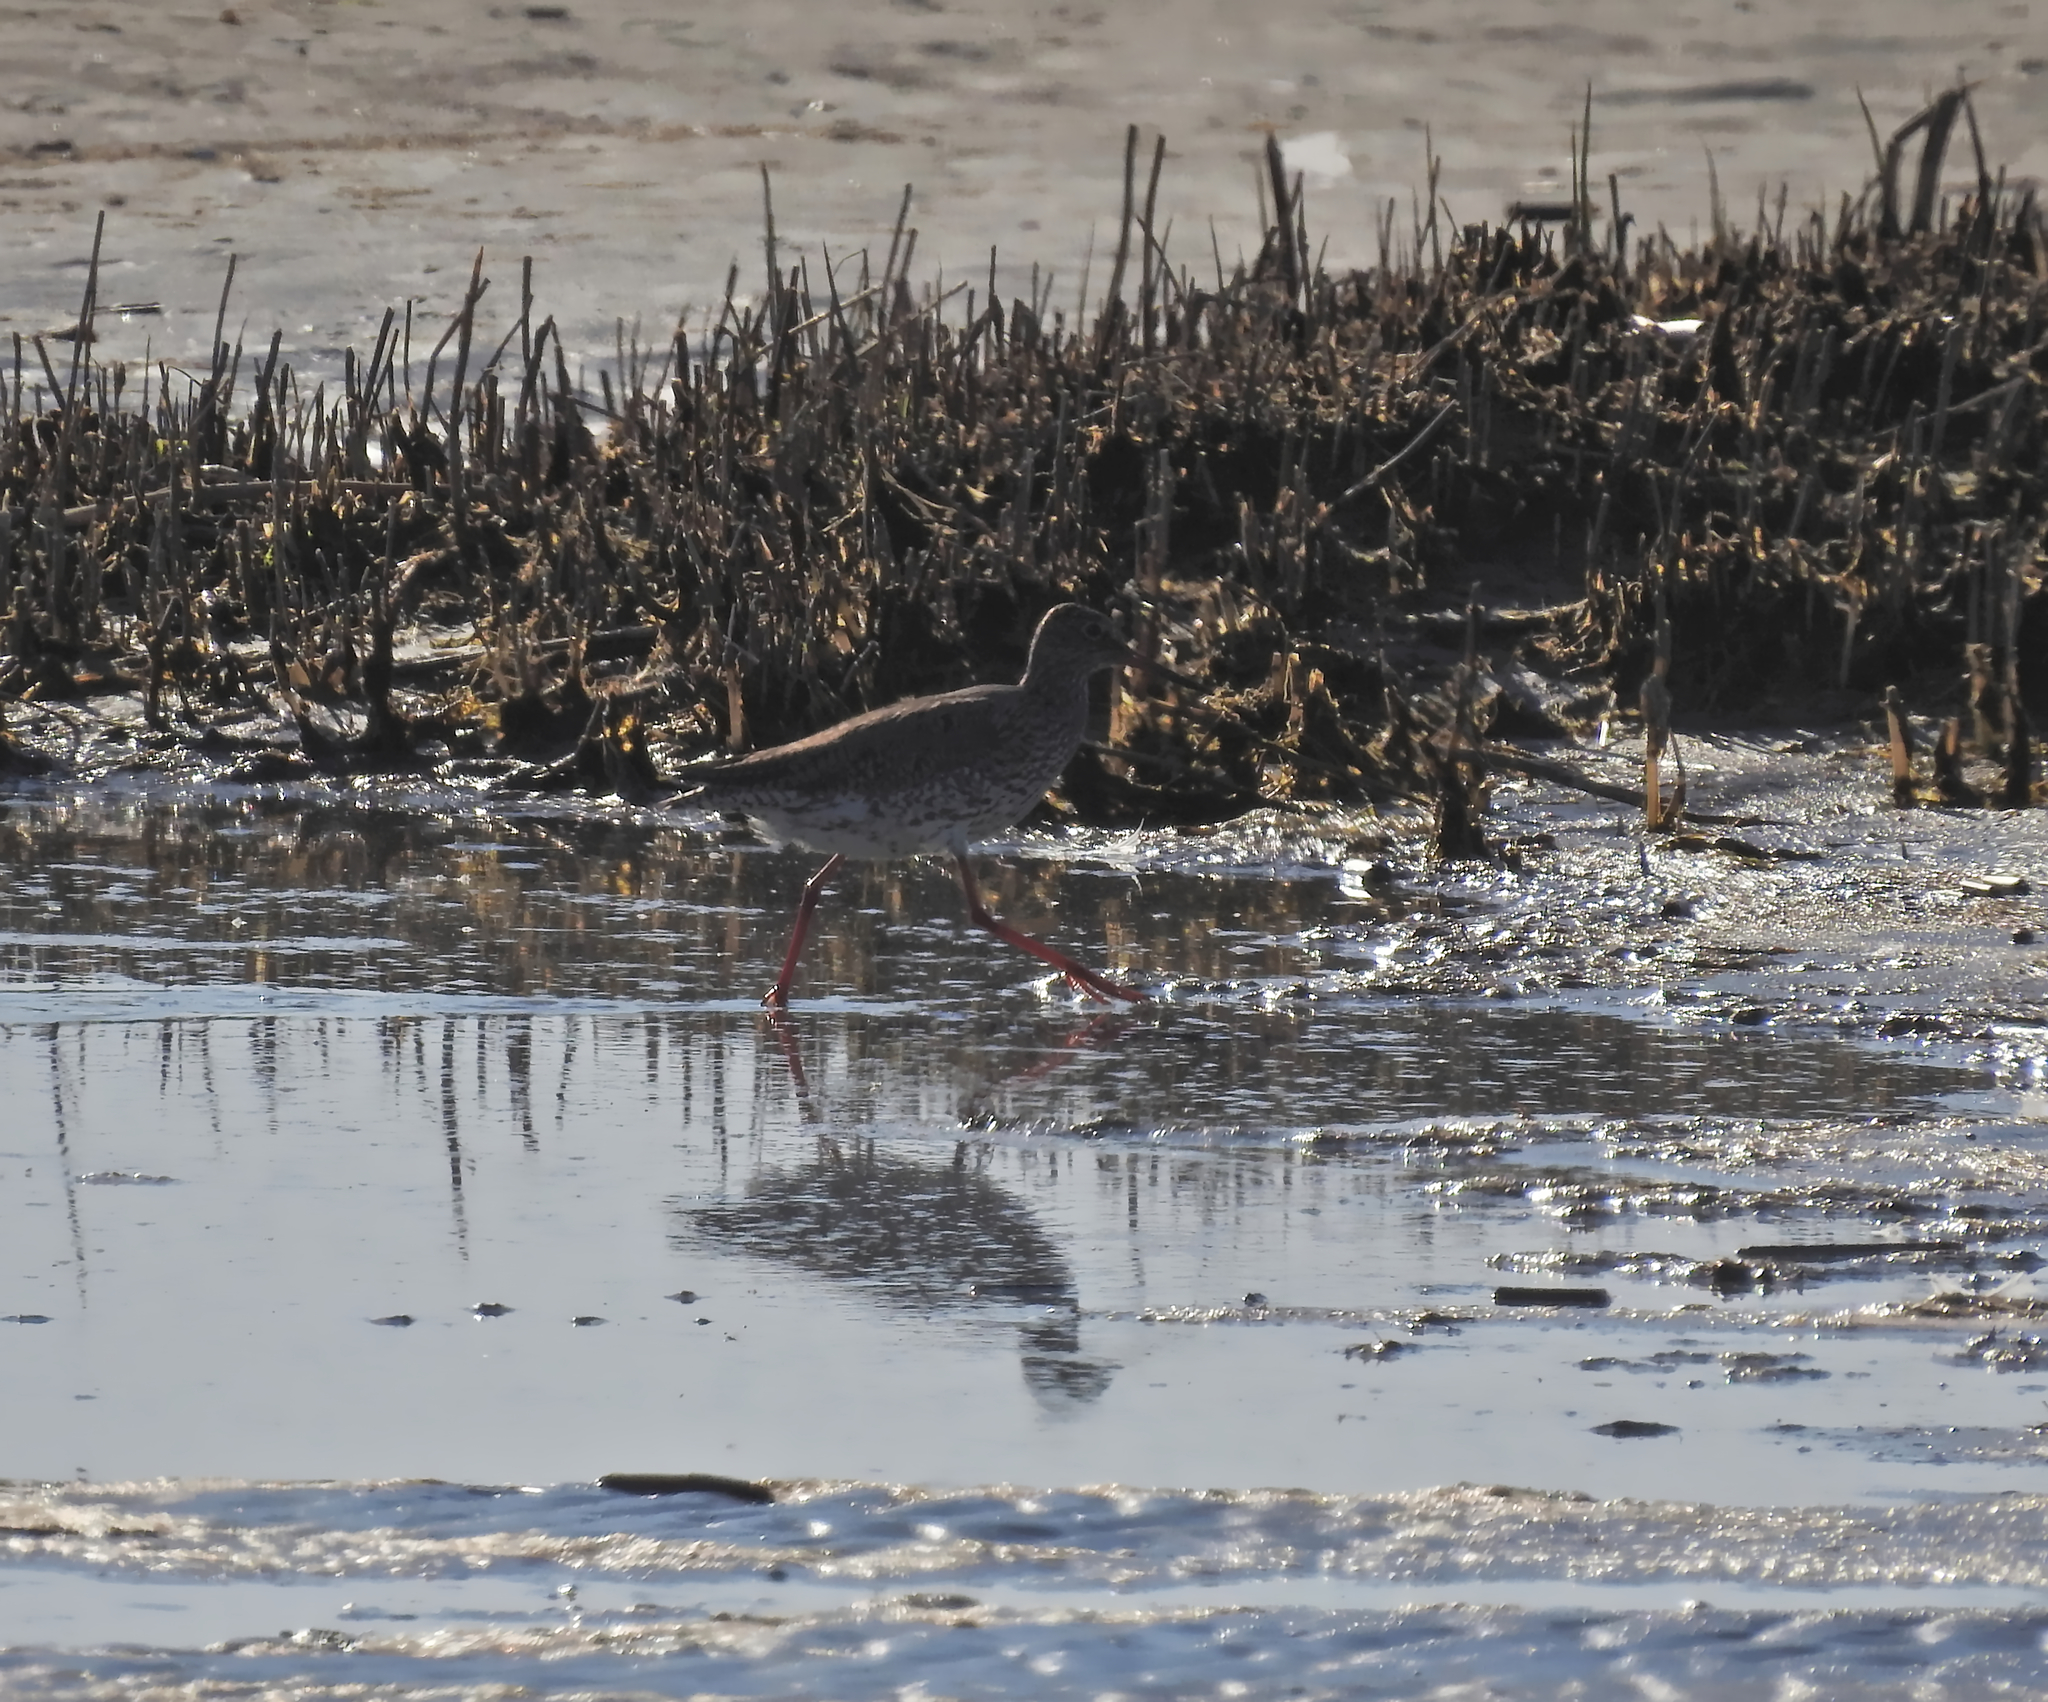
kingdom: Animalia
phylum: Chordata
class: Aves
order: Charadriiformes
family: Scolopacidae
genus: Tringa
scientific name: Tringa totanus
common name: Common redshank
